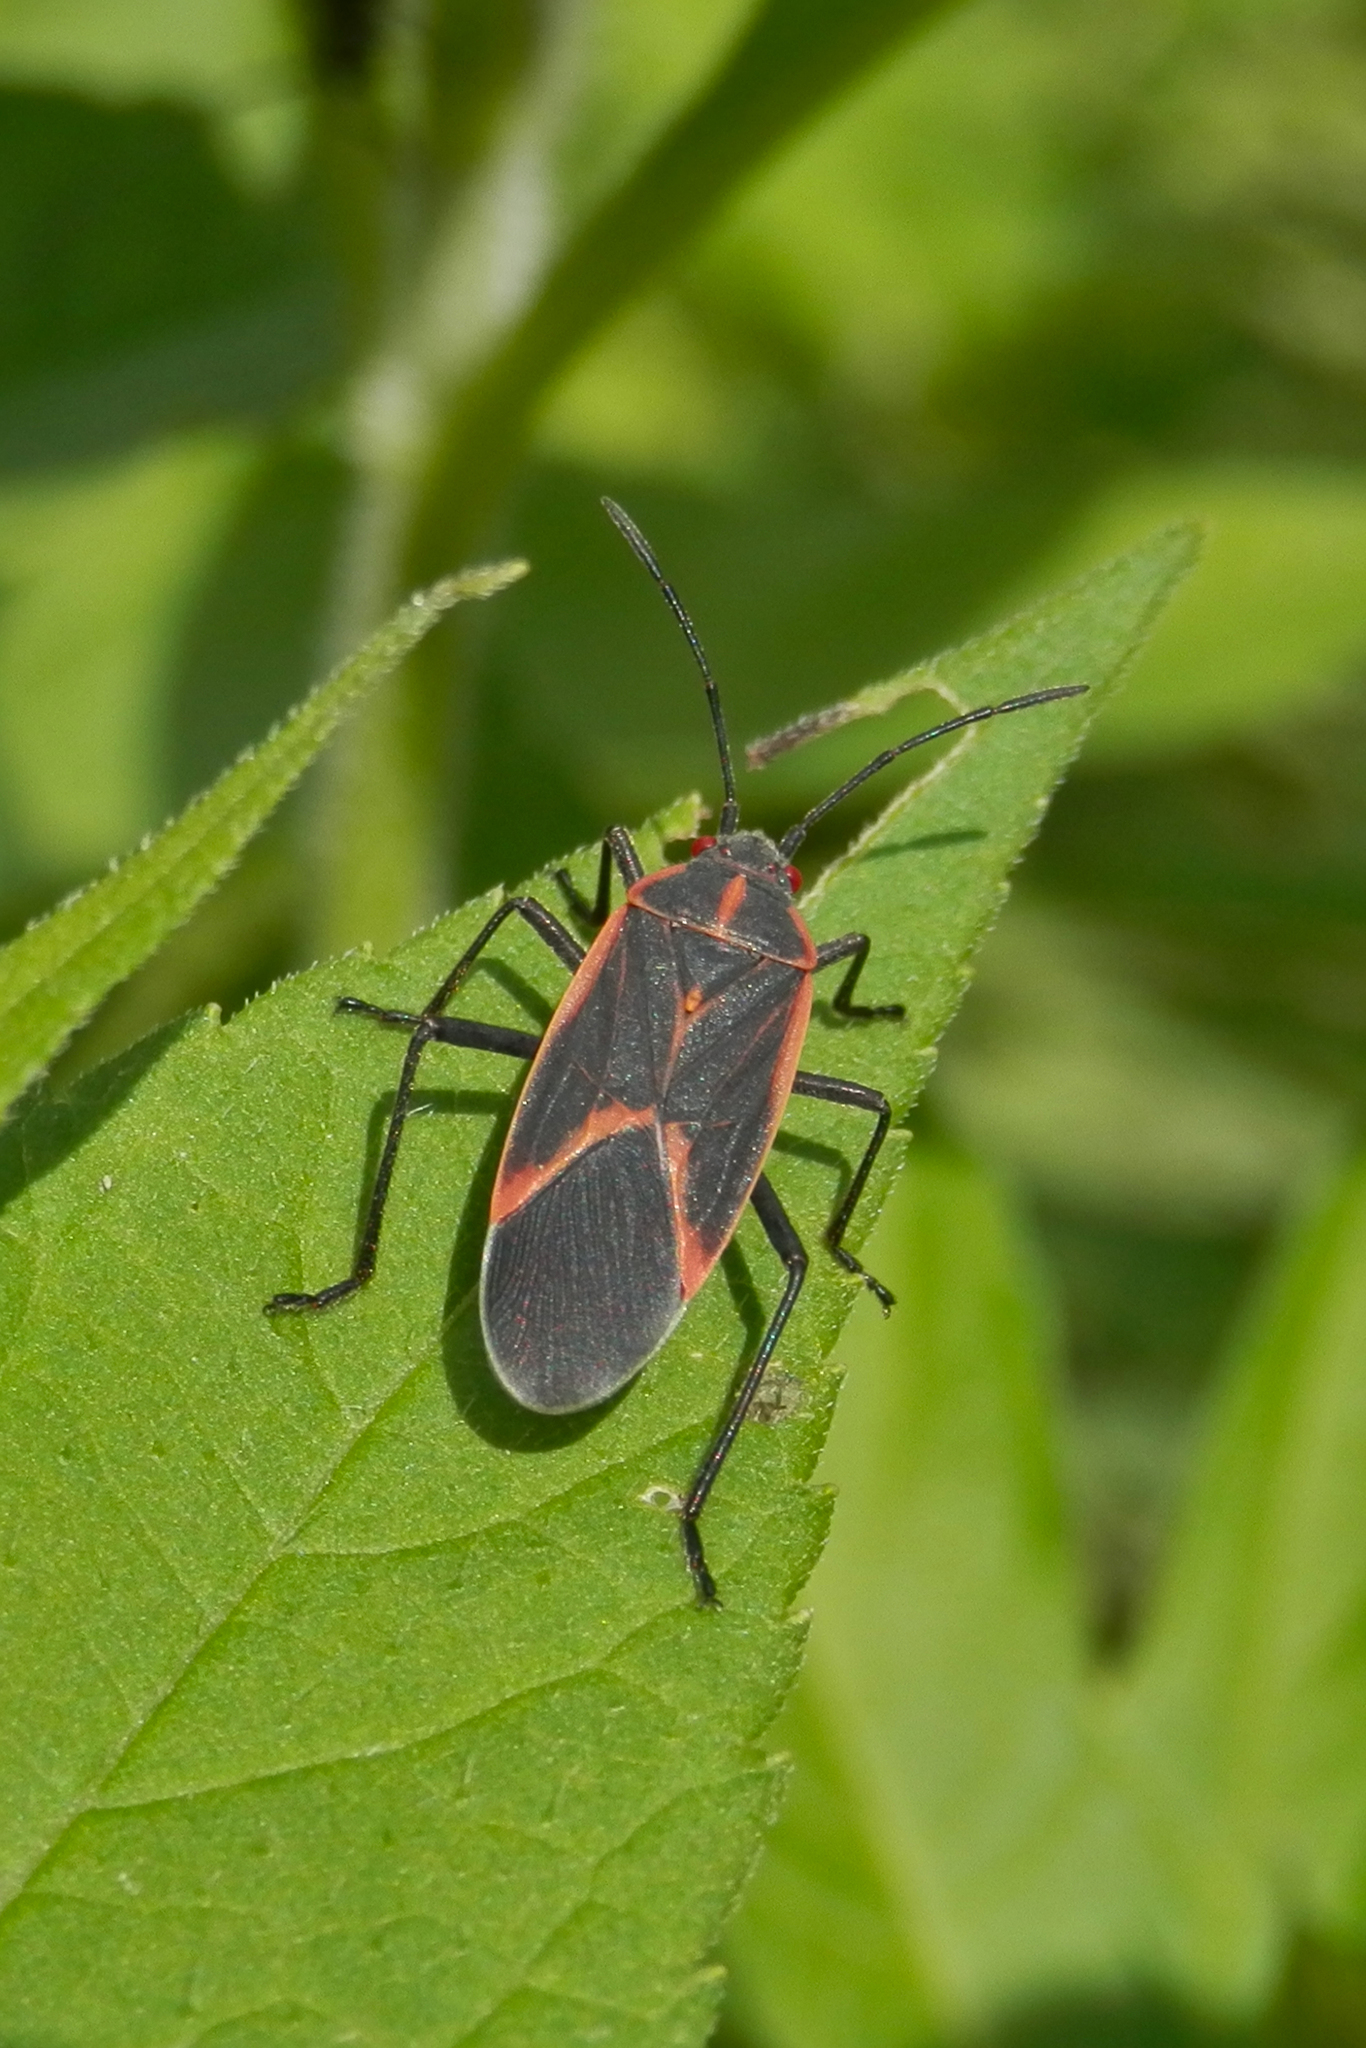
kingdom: Animalia
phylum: Arthropoda
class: Insecta
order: Hemiptera
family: Rhopalidae
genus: Boisea
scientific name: Boisea trivittata
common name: Boxelder bug
